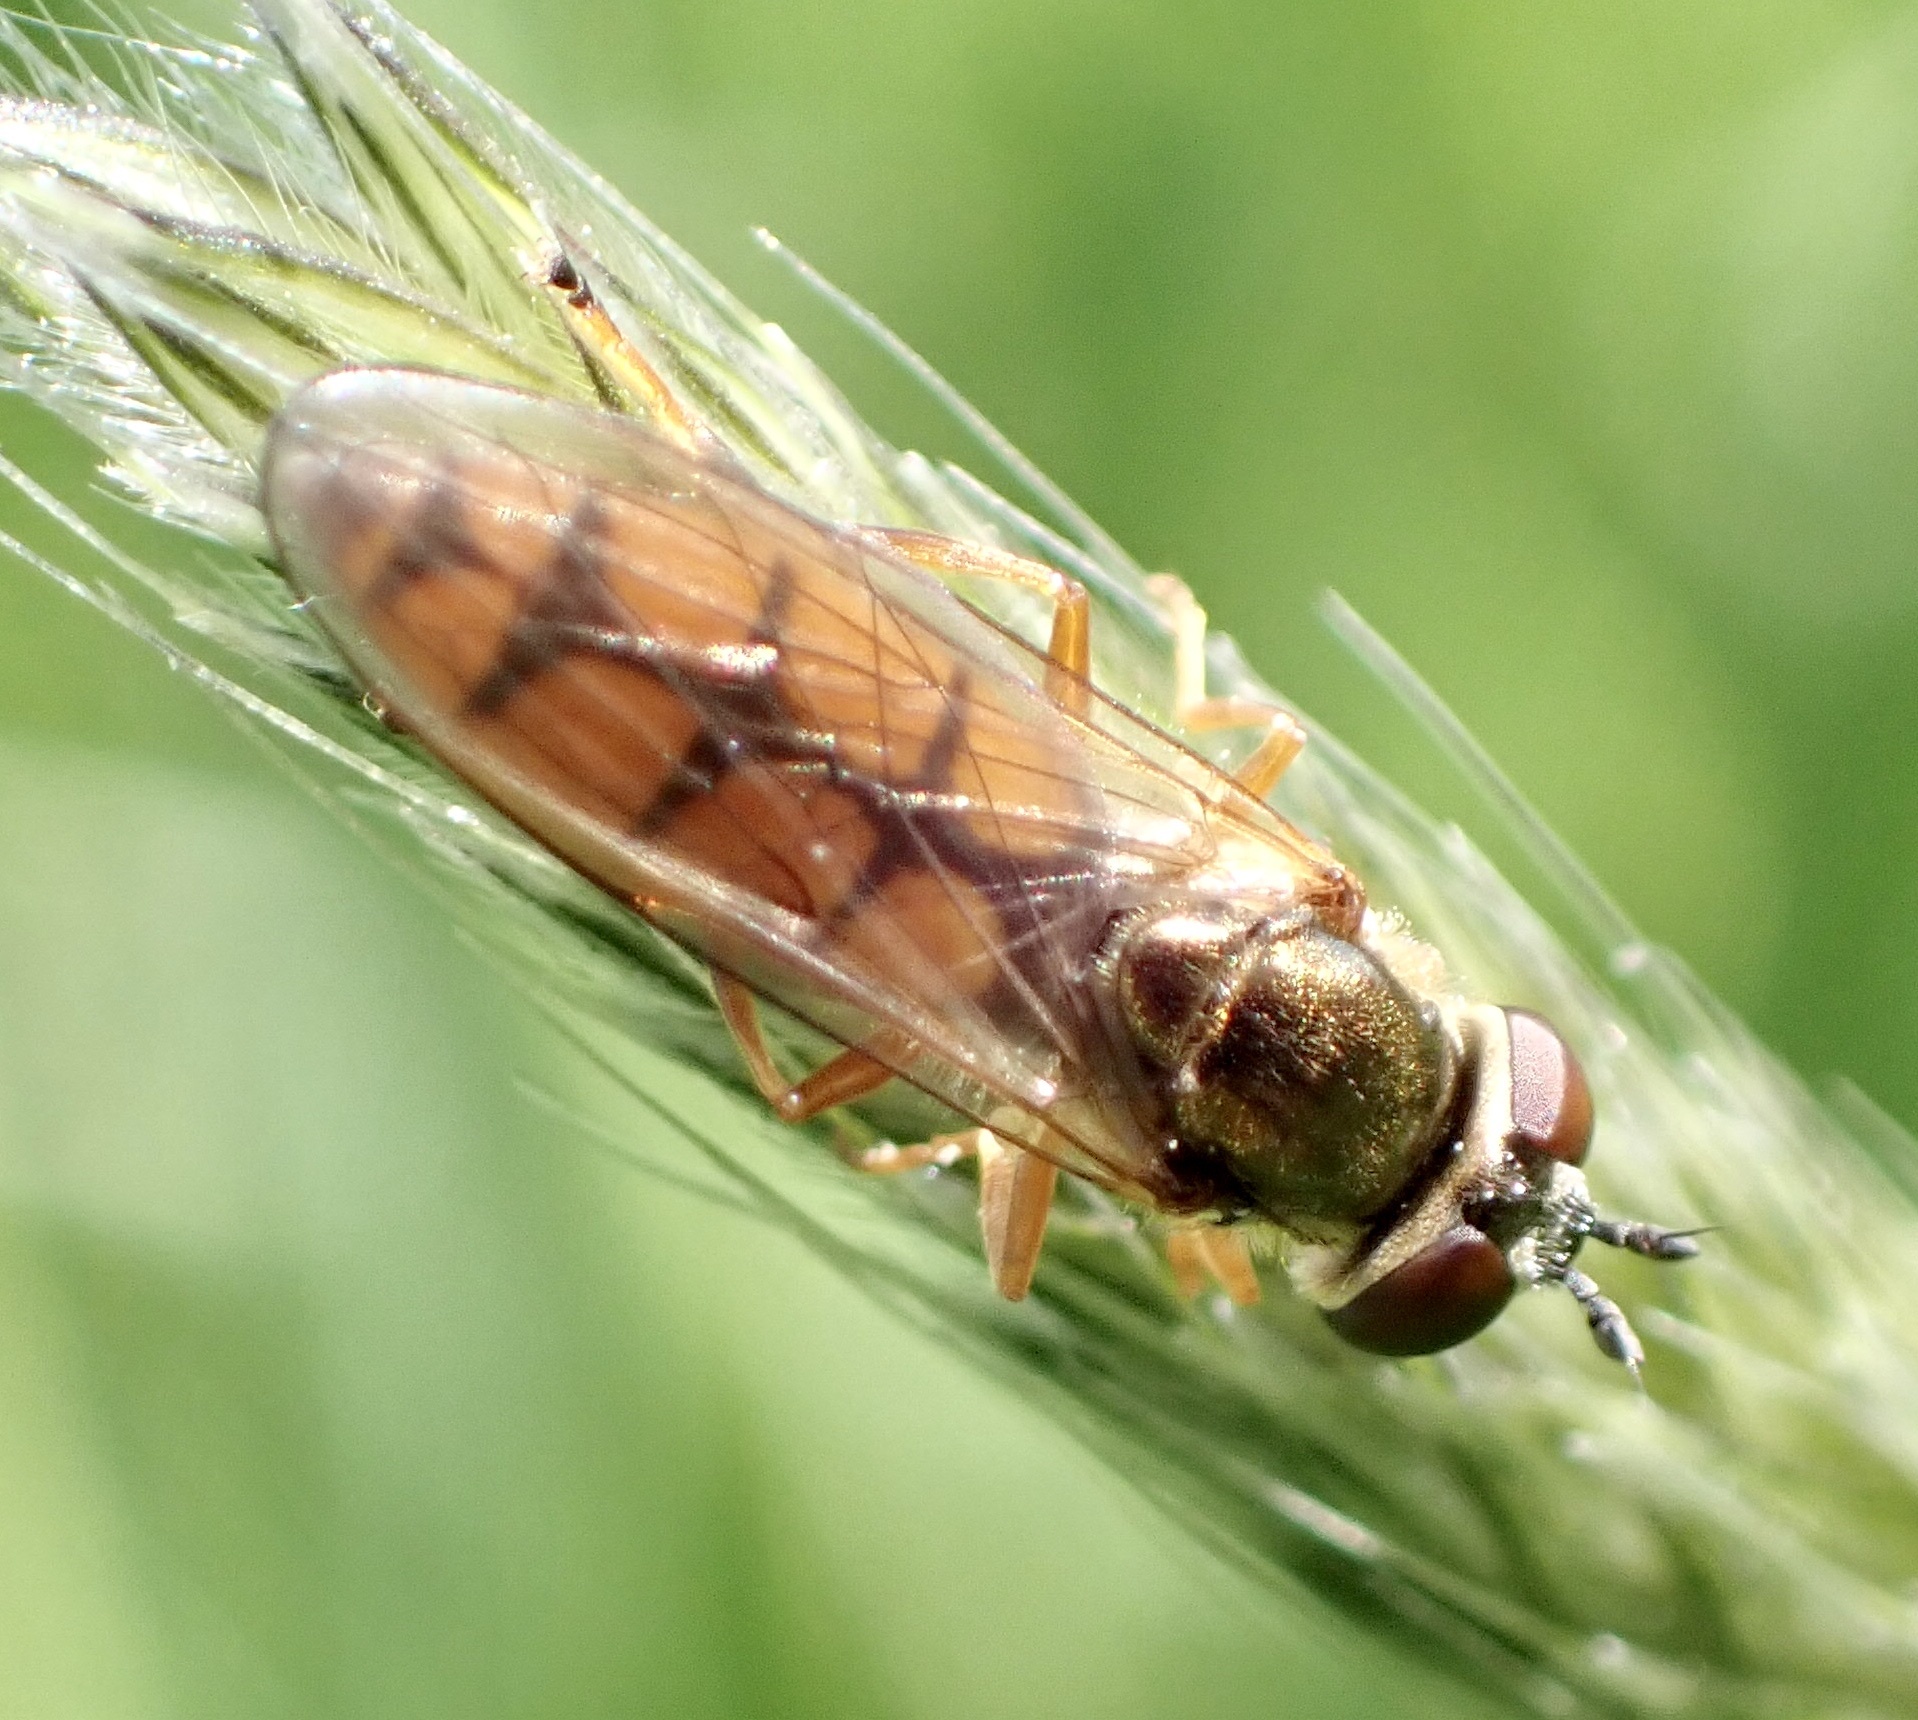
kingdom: Animalia
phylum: Arthropoda
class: Insecta
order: Diptera
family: Syrphidae
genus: Platycheirus
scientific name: Platycheirus fulviventris
